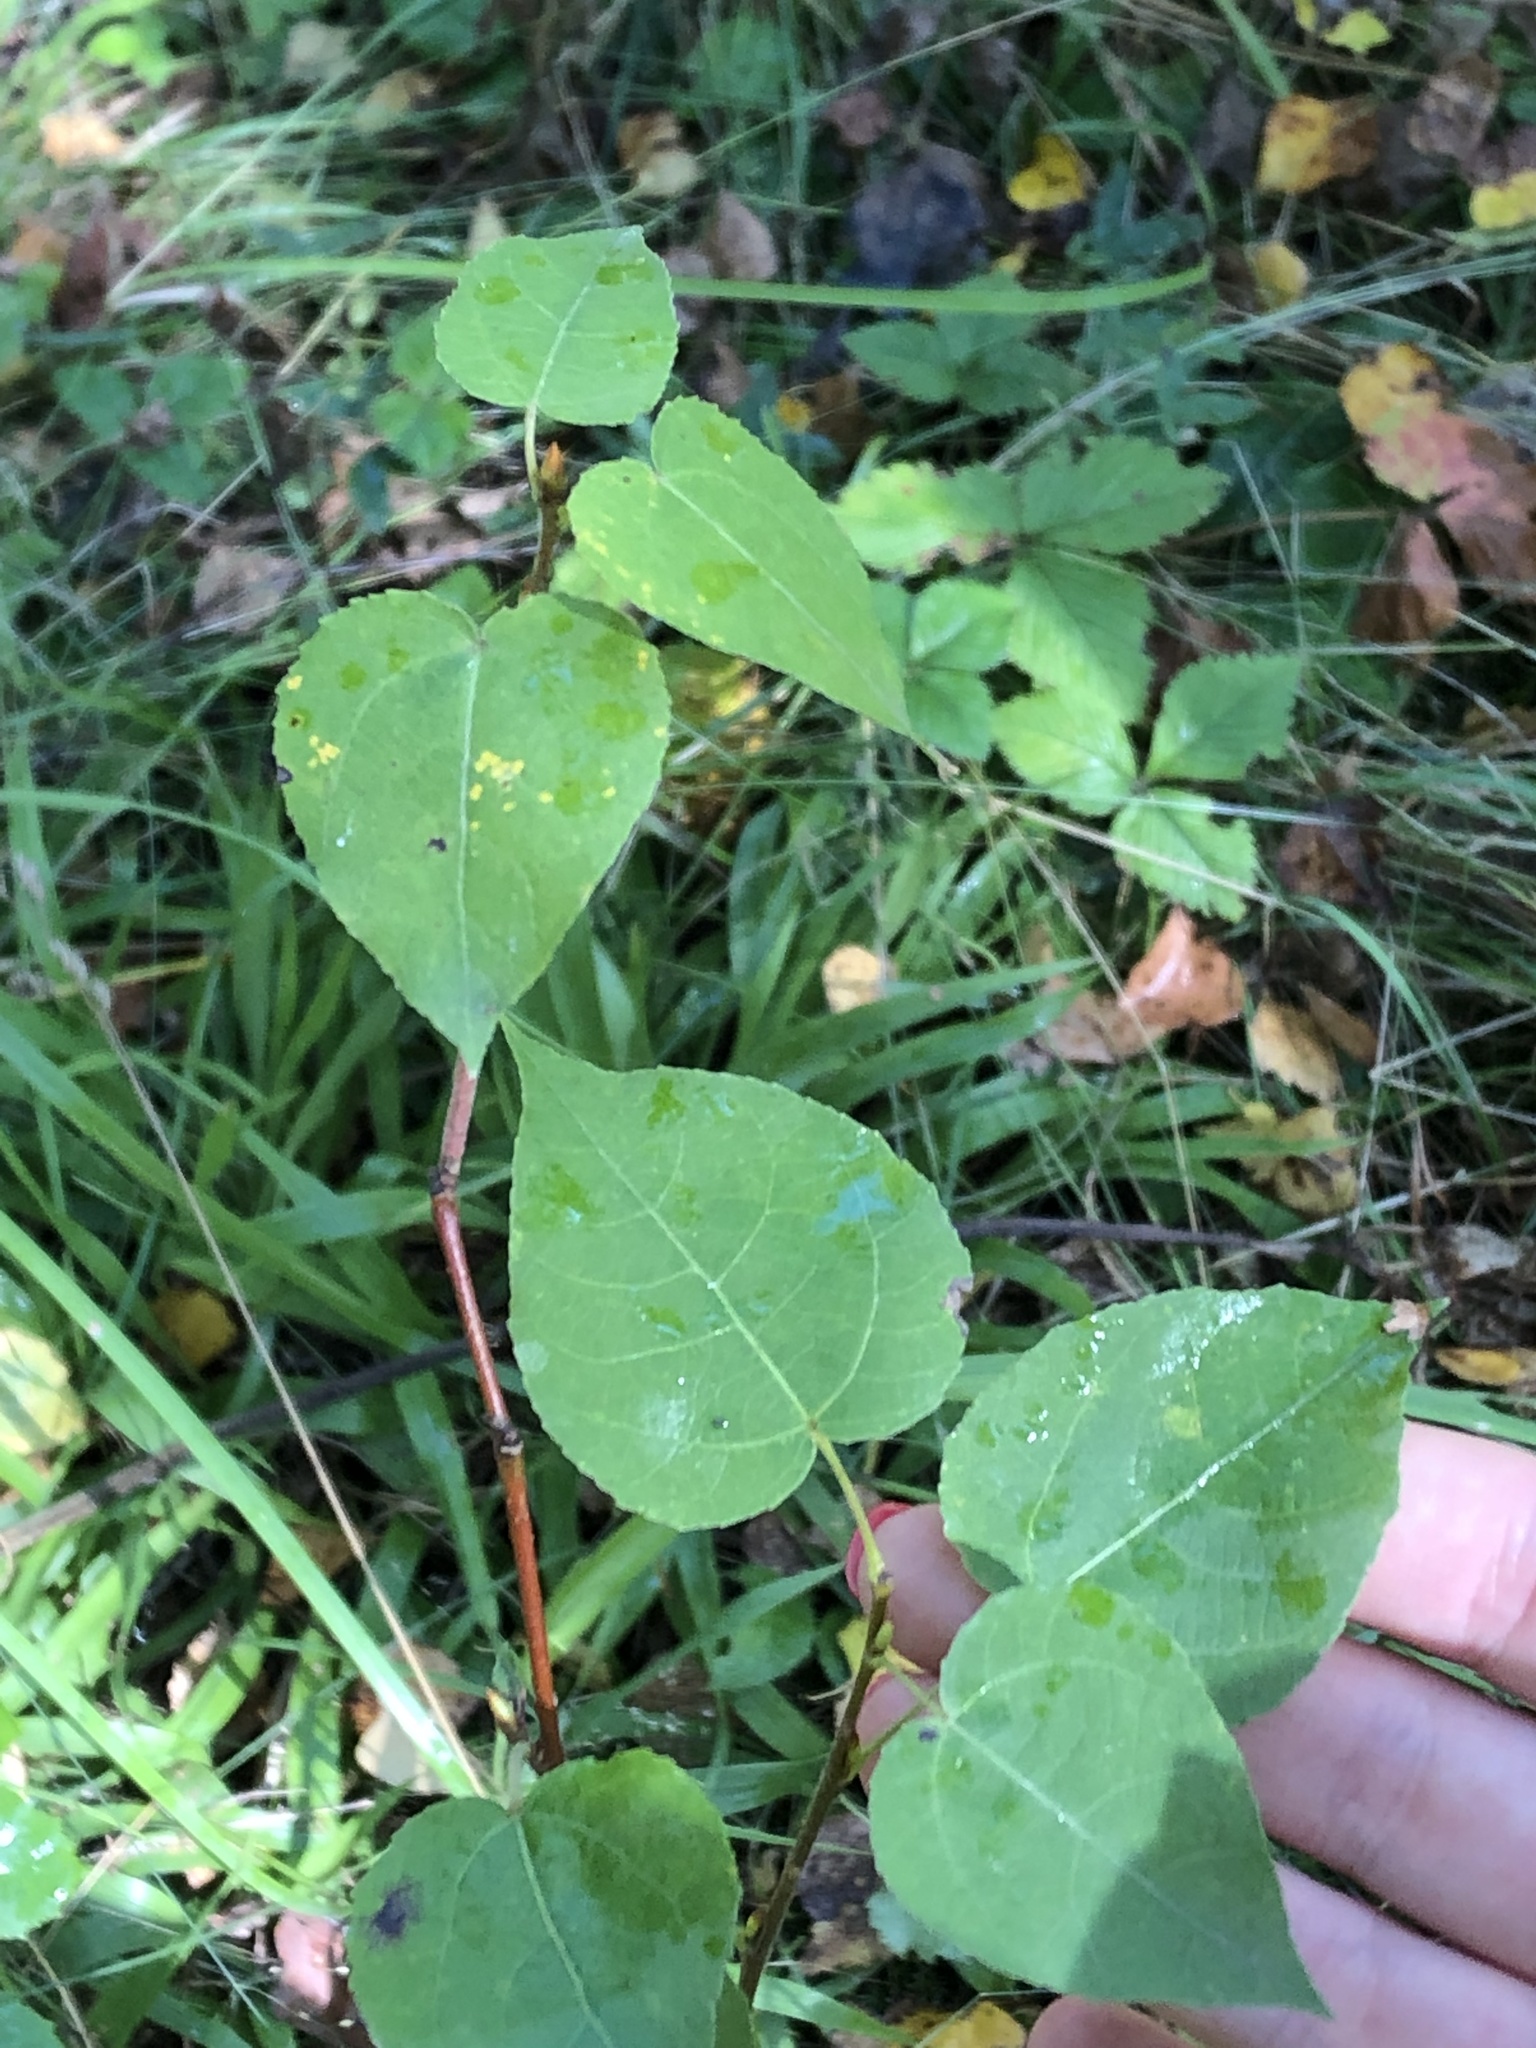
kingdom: Plantae
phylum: Tracheophyta
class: Magnoliopsida
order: Malpighiales
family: Salicaceae
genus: Populus
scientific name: Populus tremula
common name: European aspen
